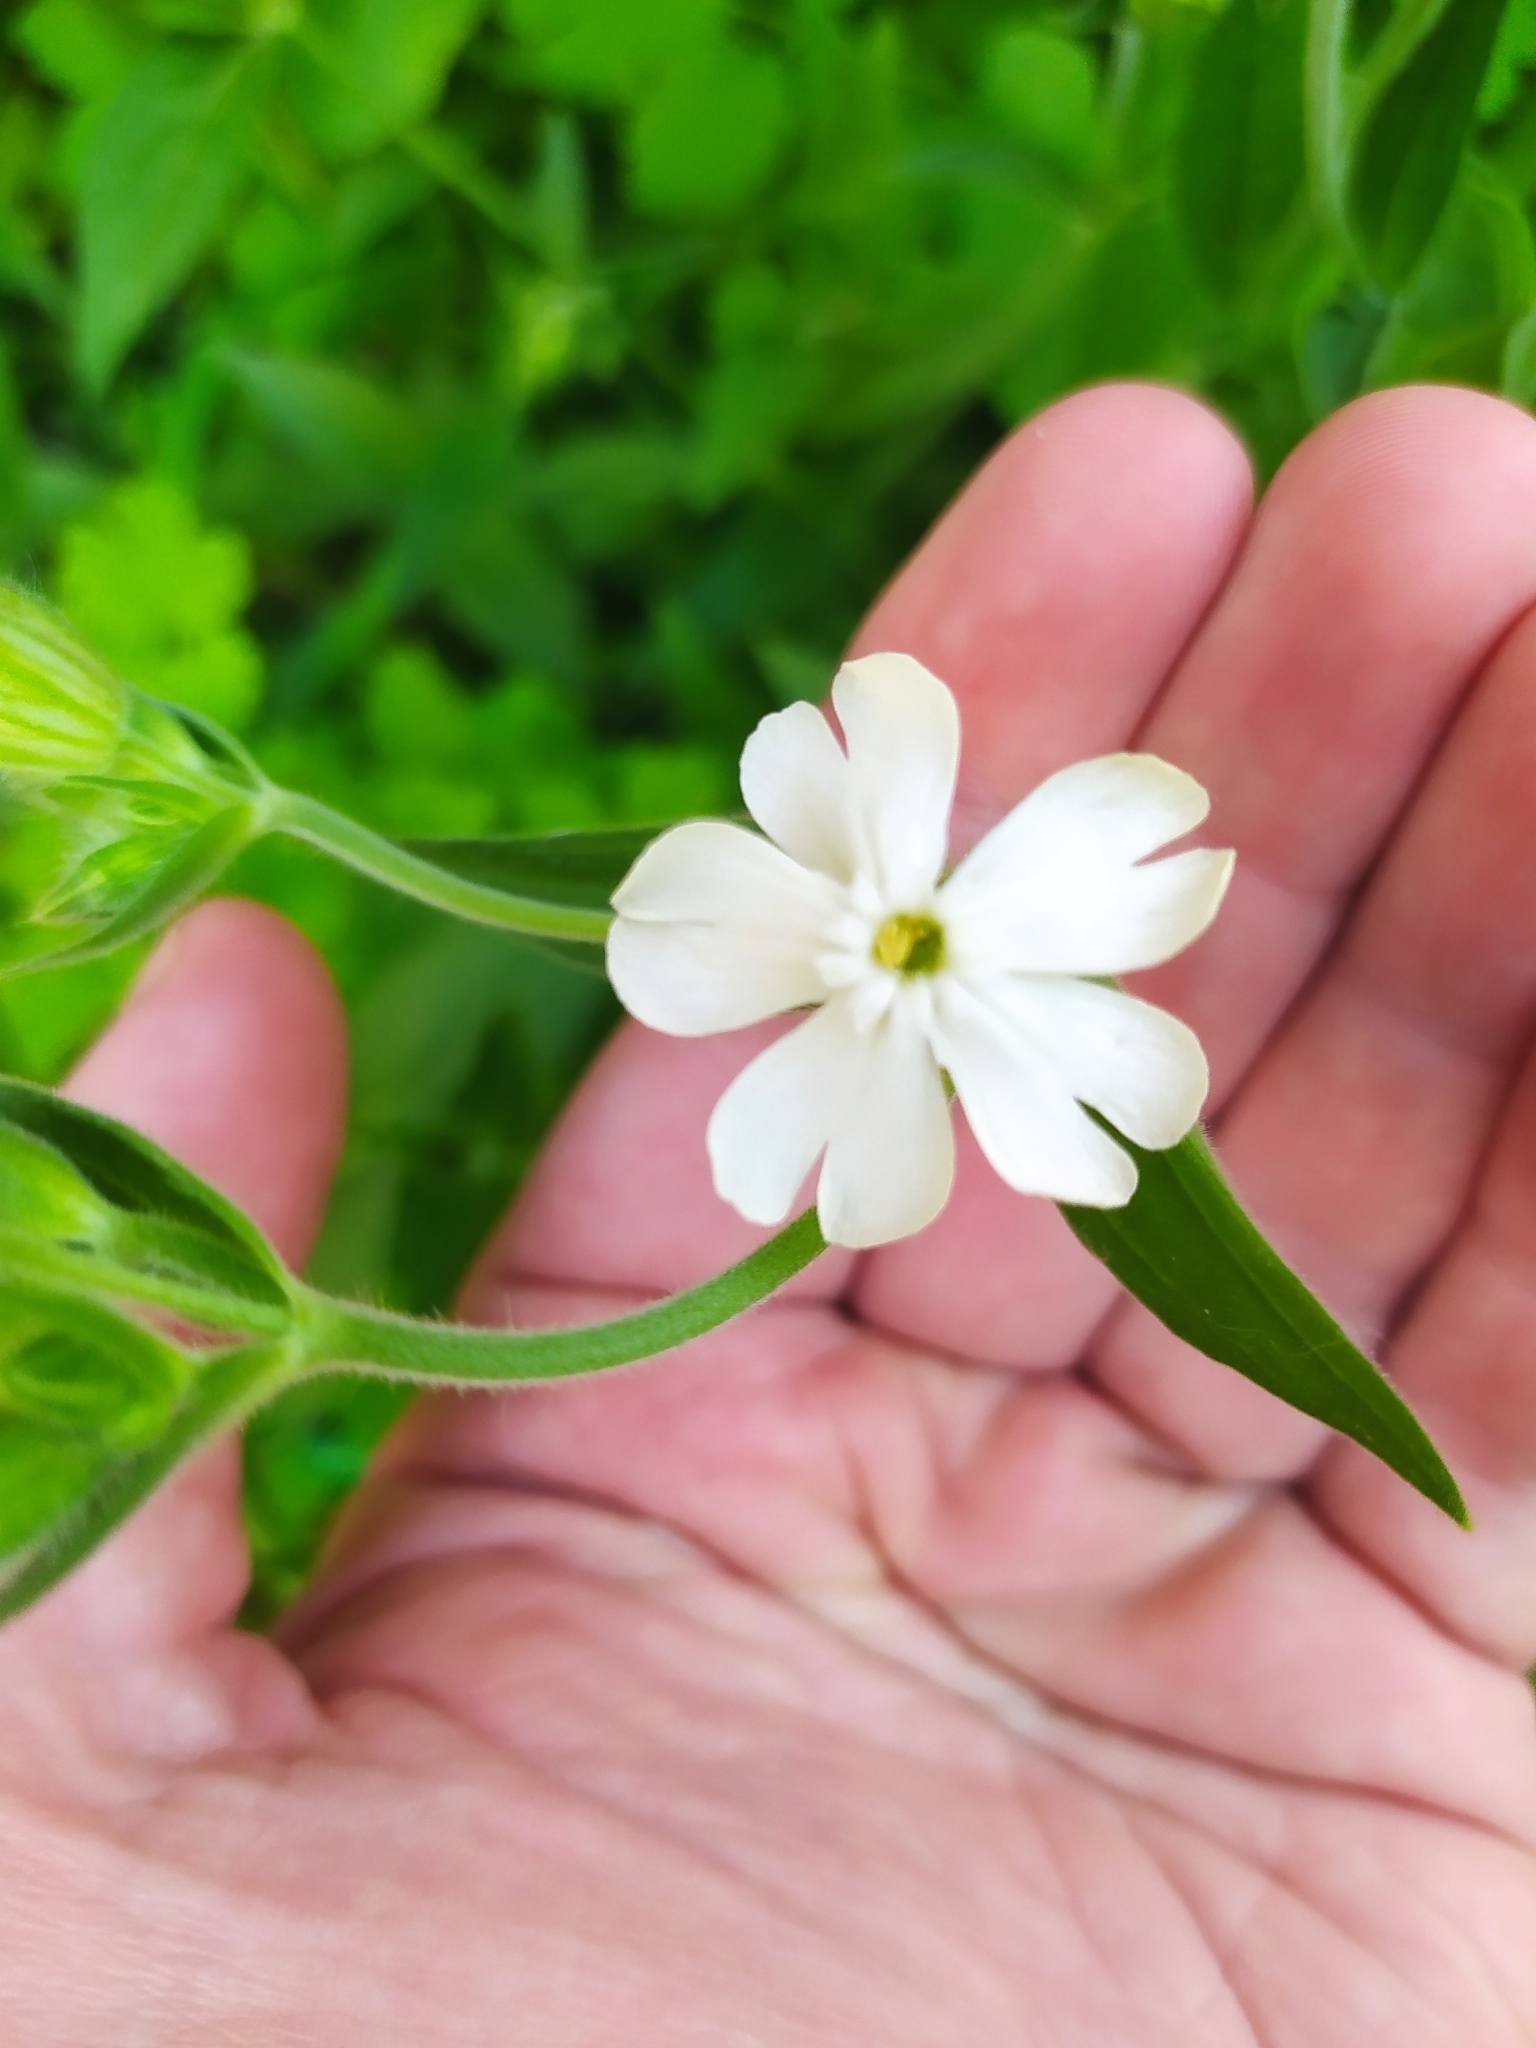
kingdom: Plantae
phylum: Tracheophyta
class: Magnoliopsida
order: Caryophyllales
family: Caryophyllaceae
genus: Silene
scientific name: Silene latifolia
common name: White campion
